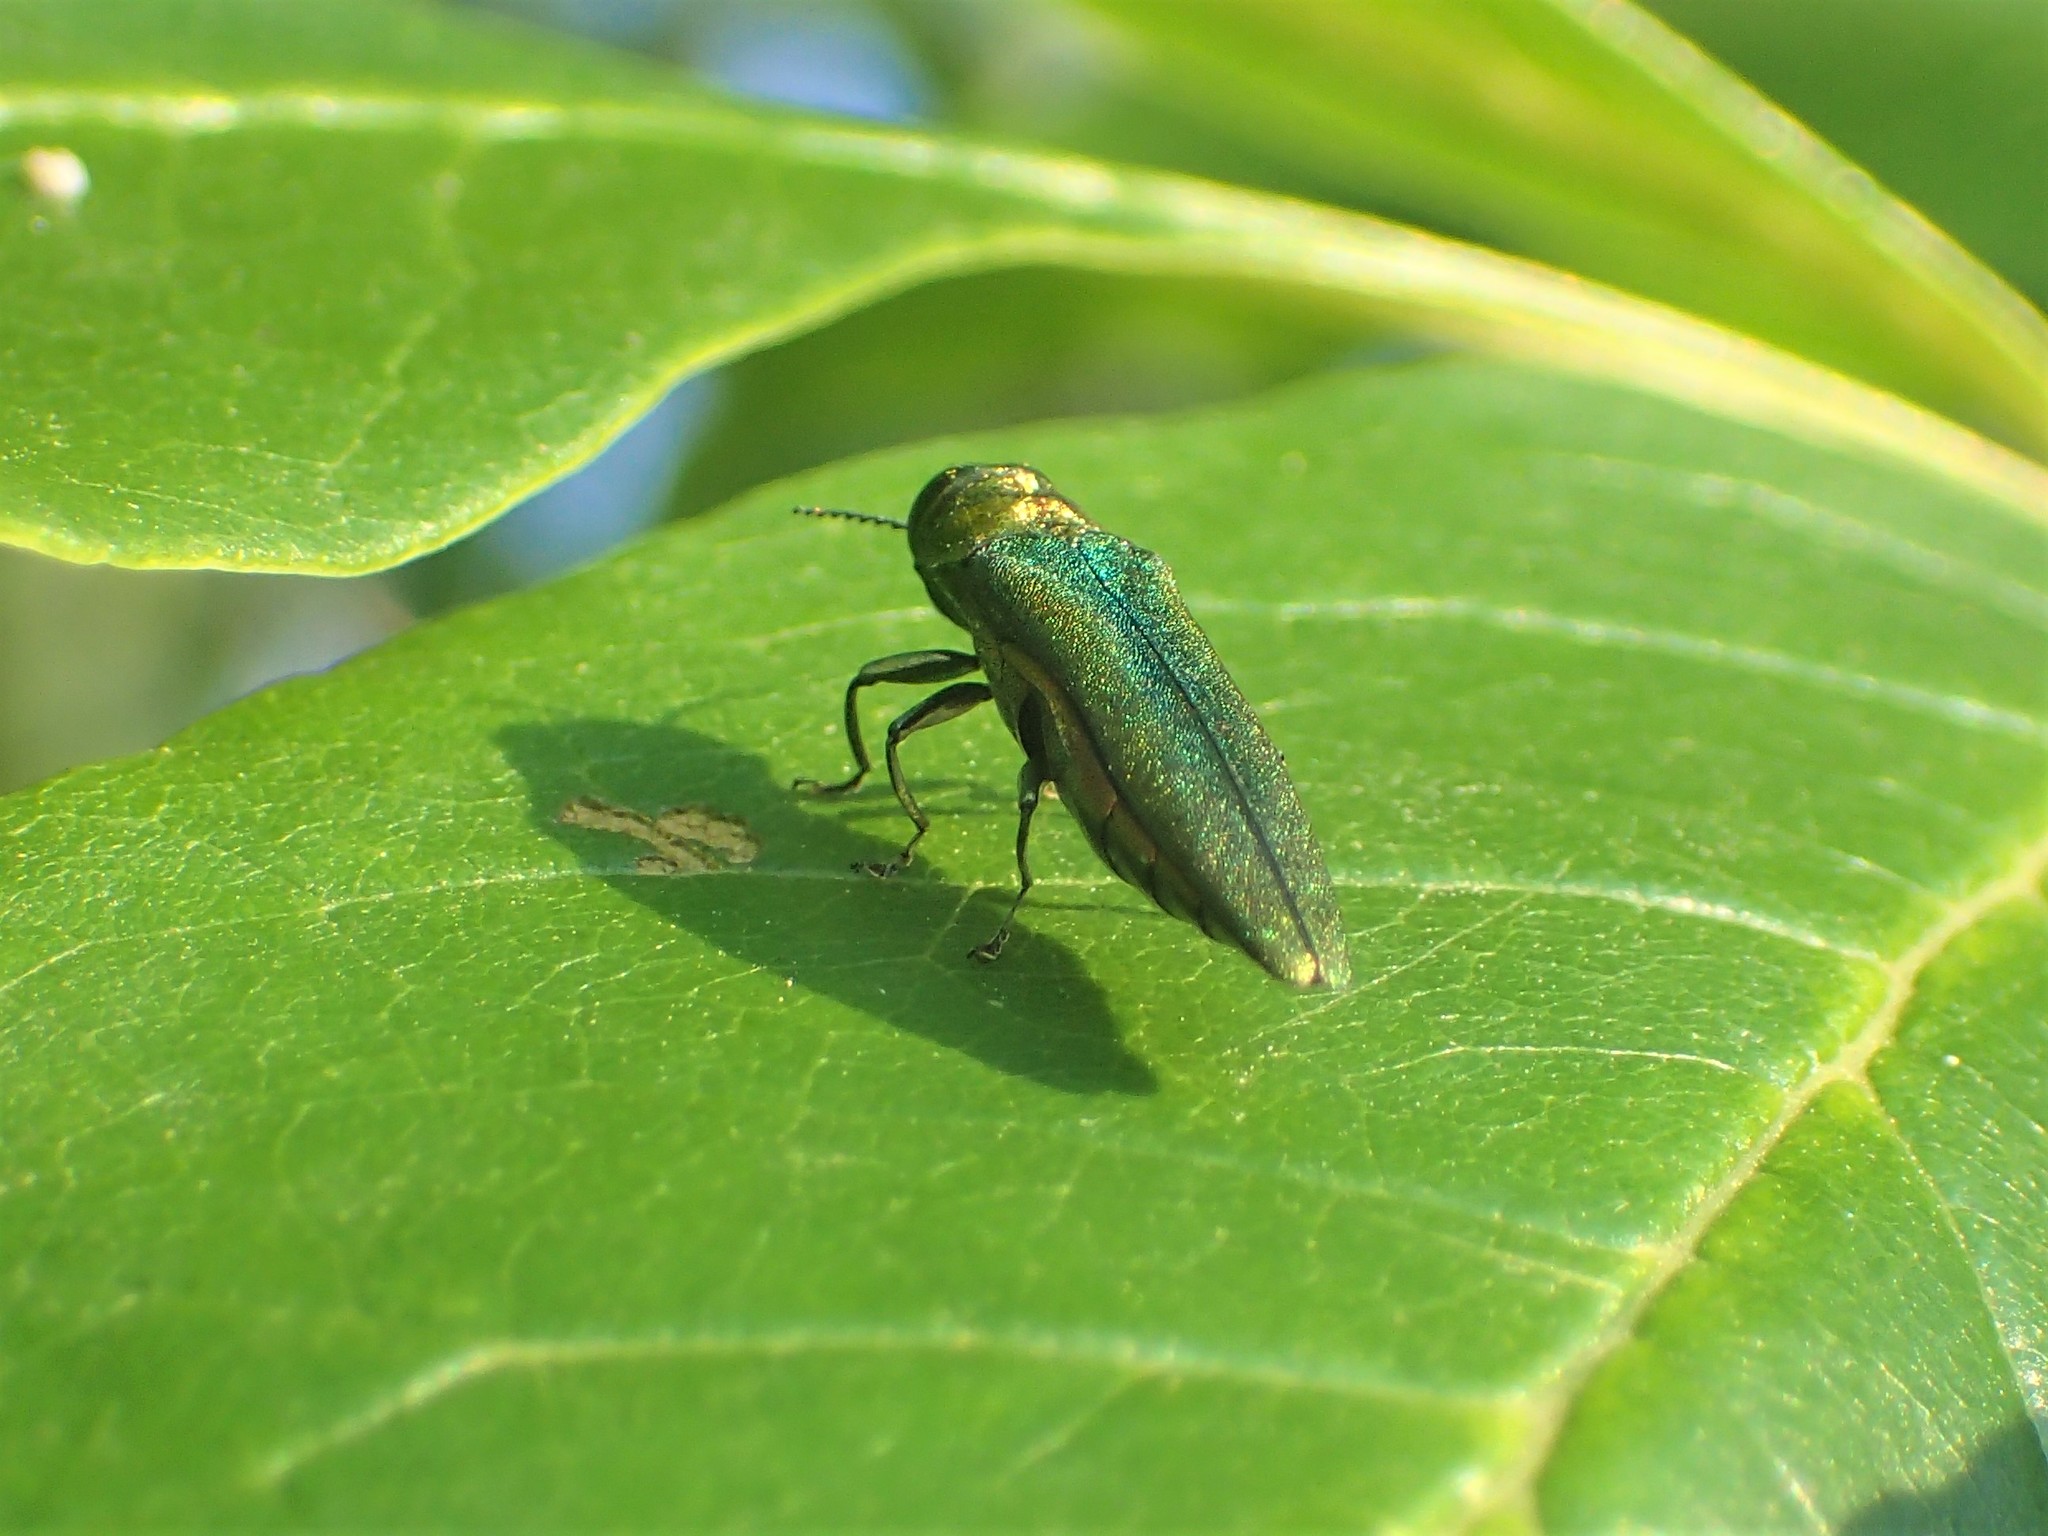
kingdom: Animalia
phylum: Arthropoda
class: Insecta
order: Coleoptera
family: Buprestidae
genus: Agrilus
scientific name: Agrilus planipennis
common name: Emerald ash borer
